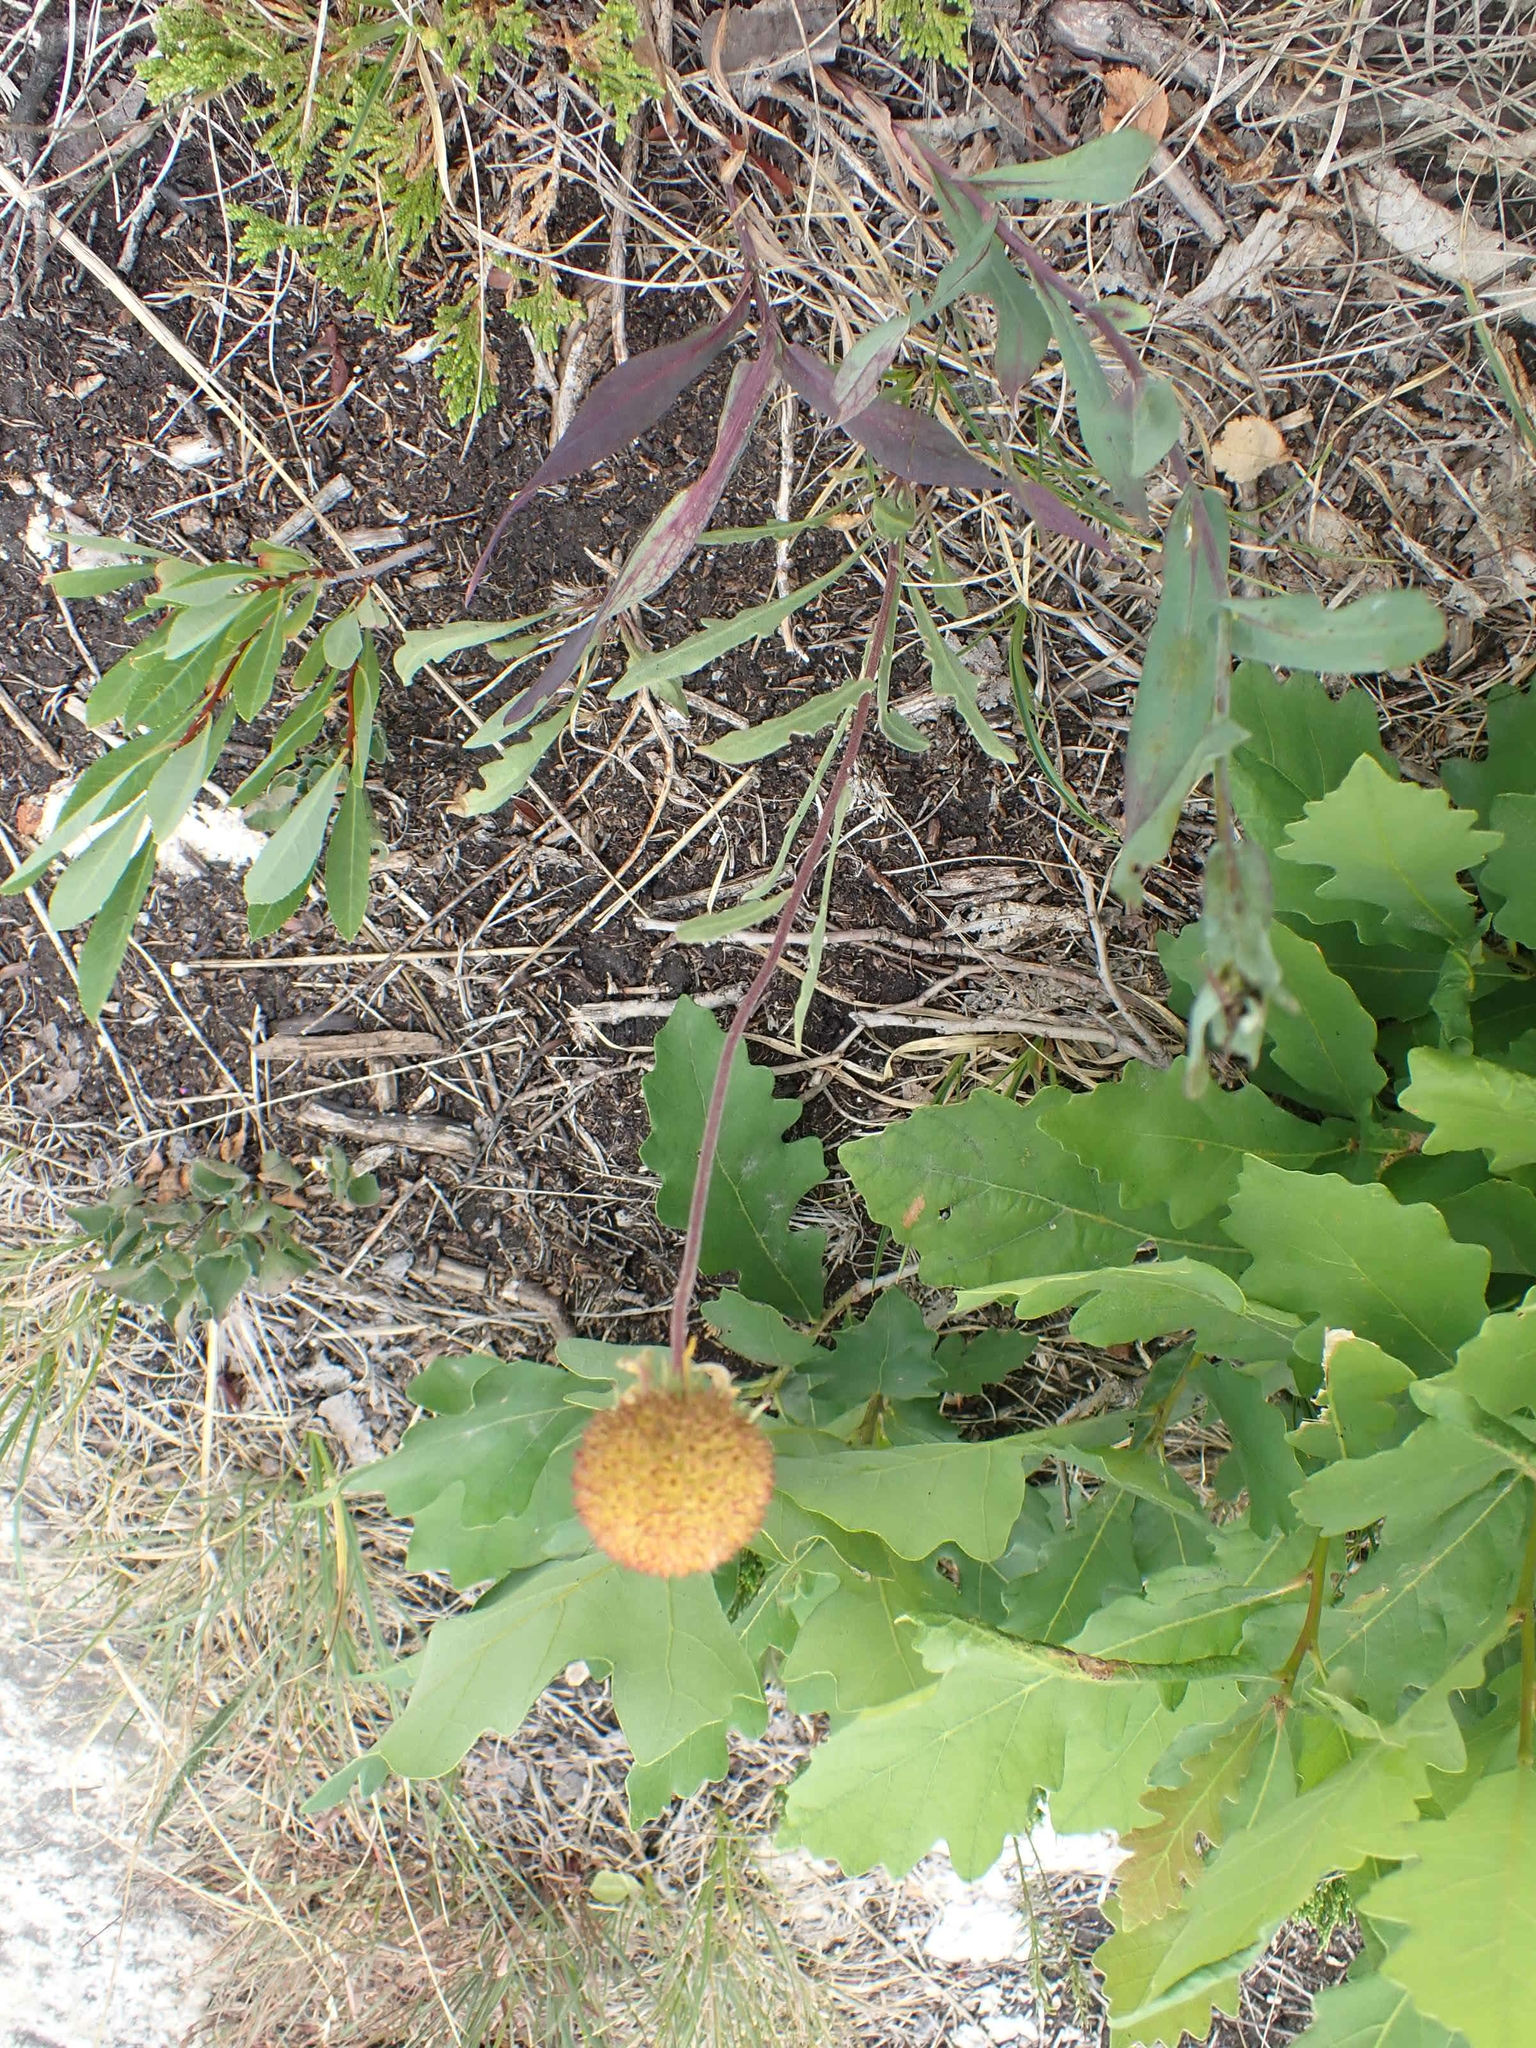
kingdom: Plantae
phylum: Tracheophyta
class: Magnoliopsida
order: Asterales
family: Asteraceae
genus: Gaillardia
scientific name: Gaillardia aristata
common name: Blanket-flower
